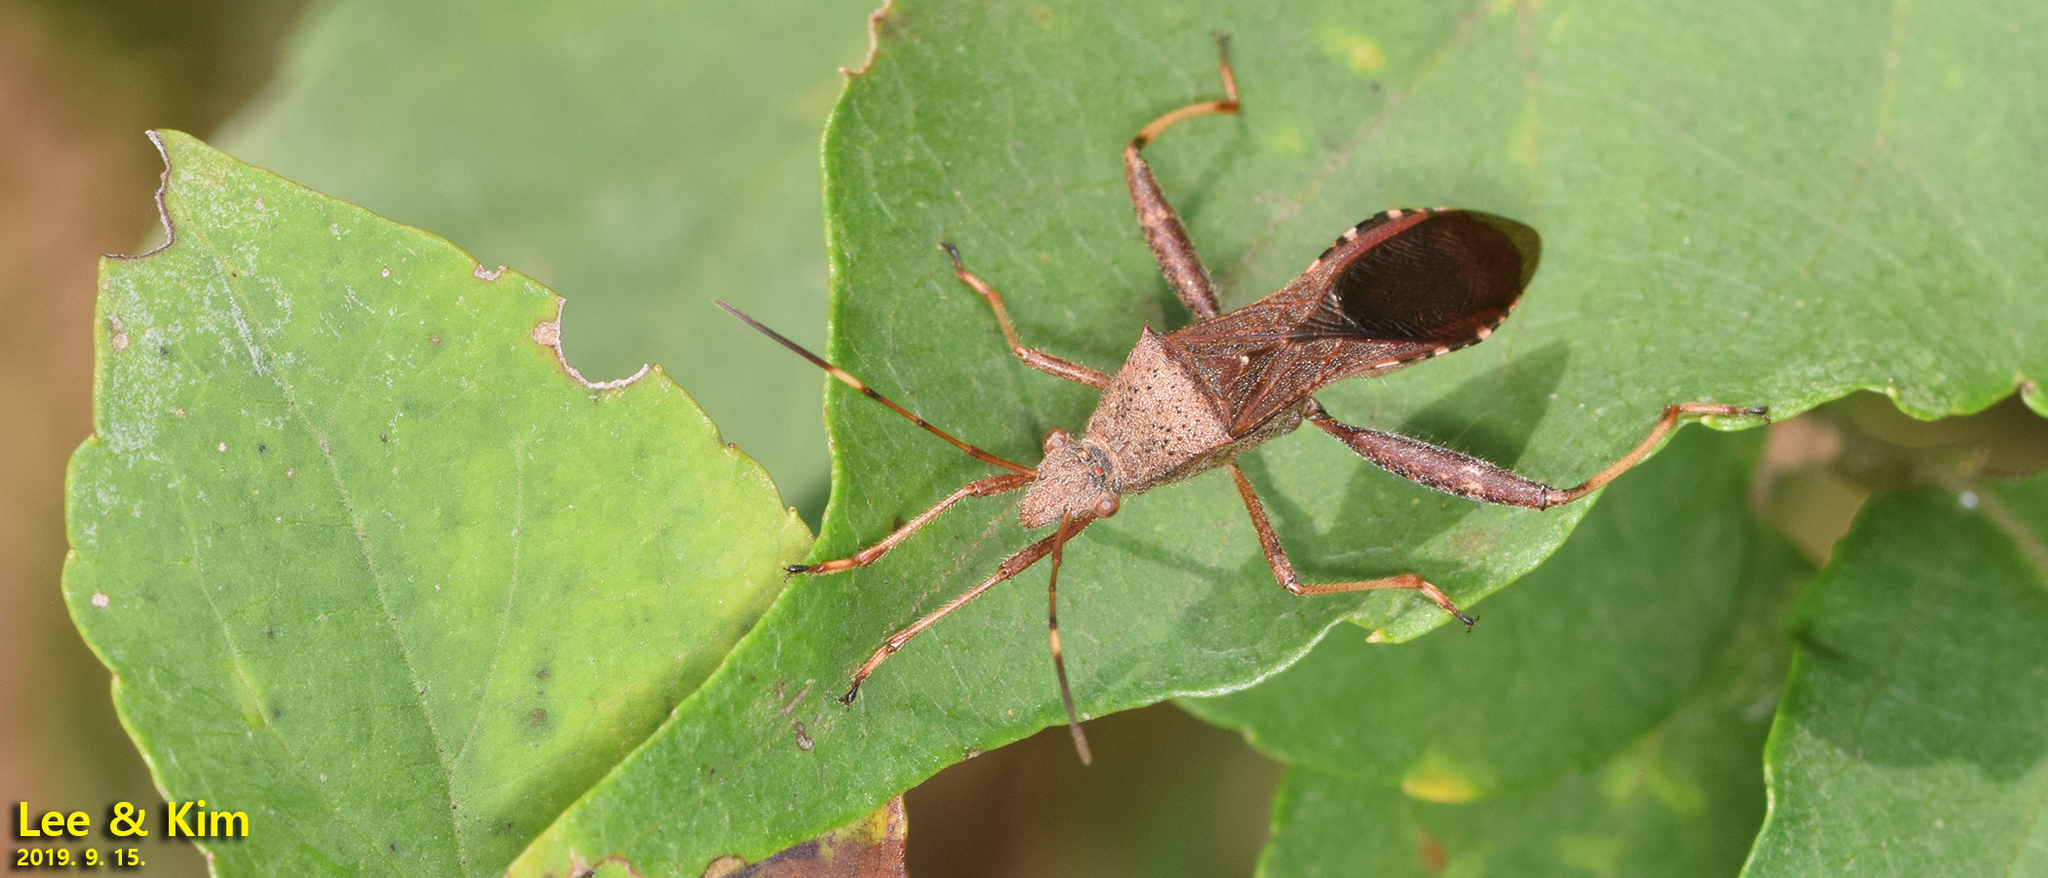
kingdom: Animalia
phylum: Arthropoda
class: Insecta
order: Hemiptera
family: Alydidae
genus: Riptortus
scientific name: Riptortus pedestris
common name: Bean bug
